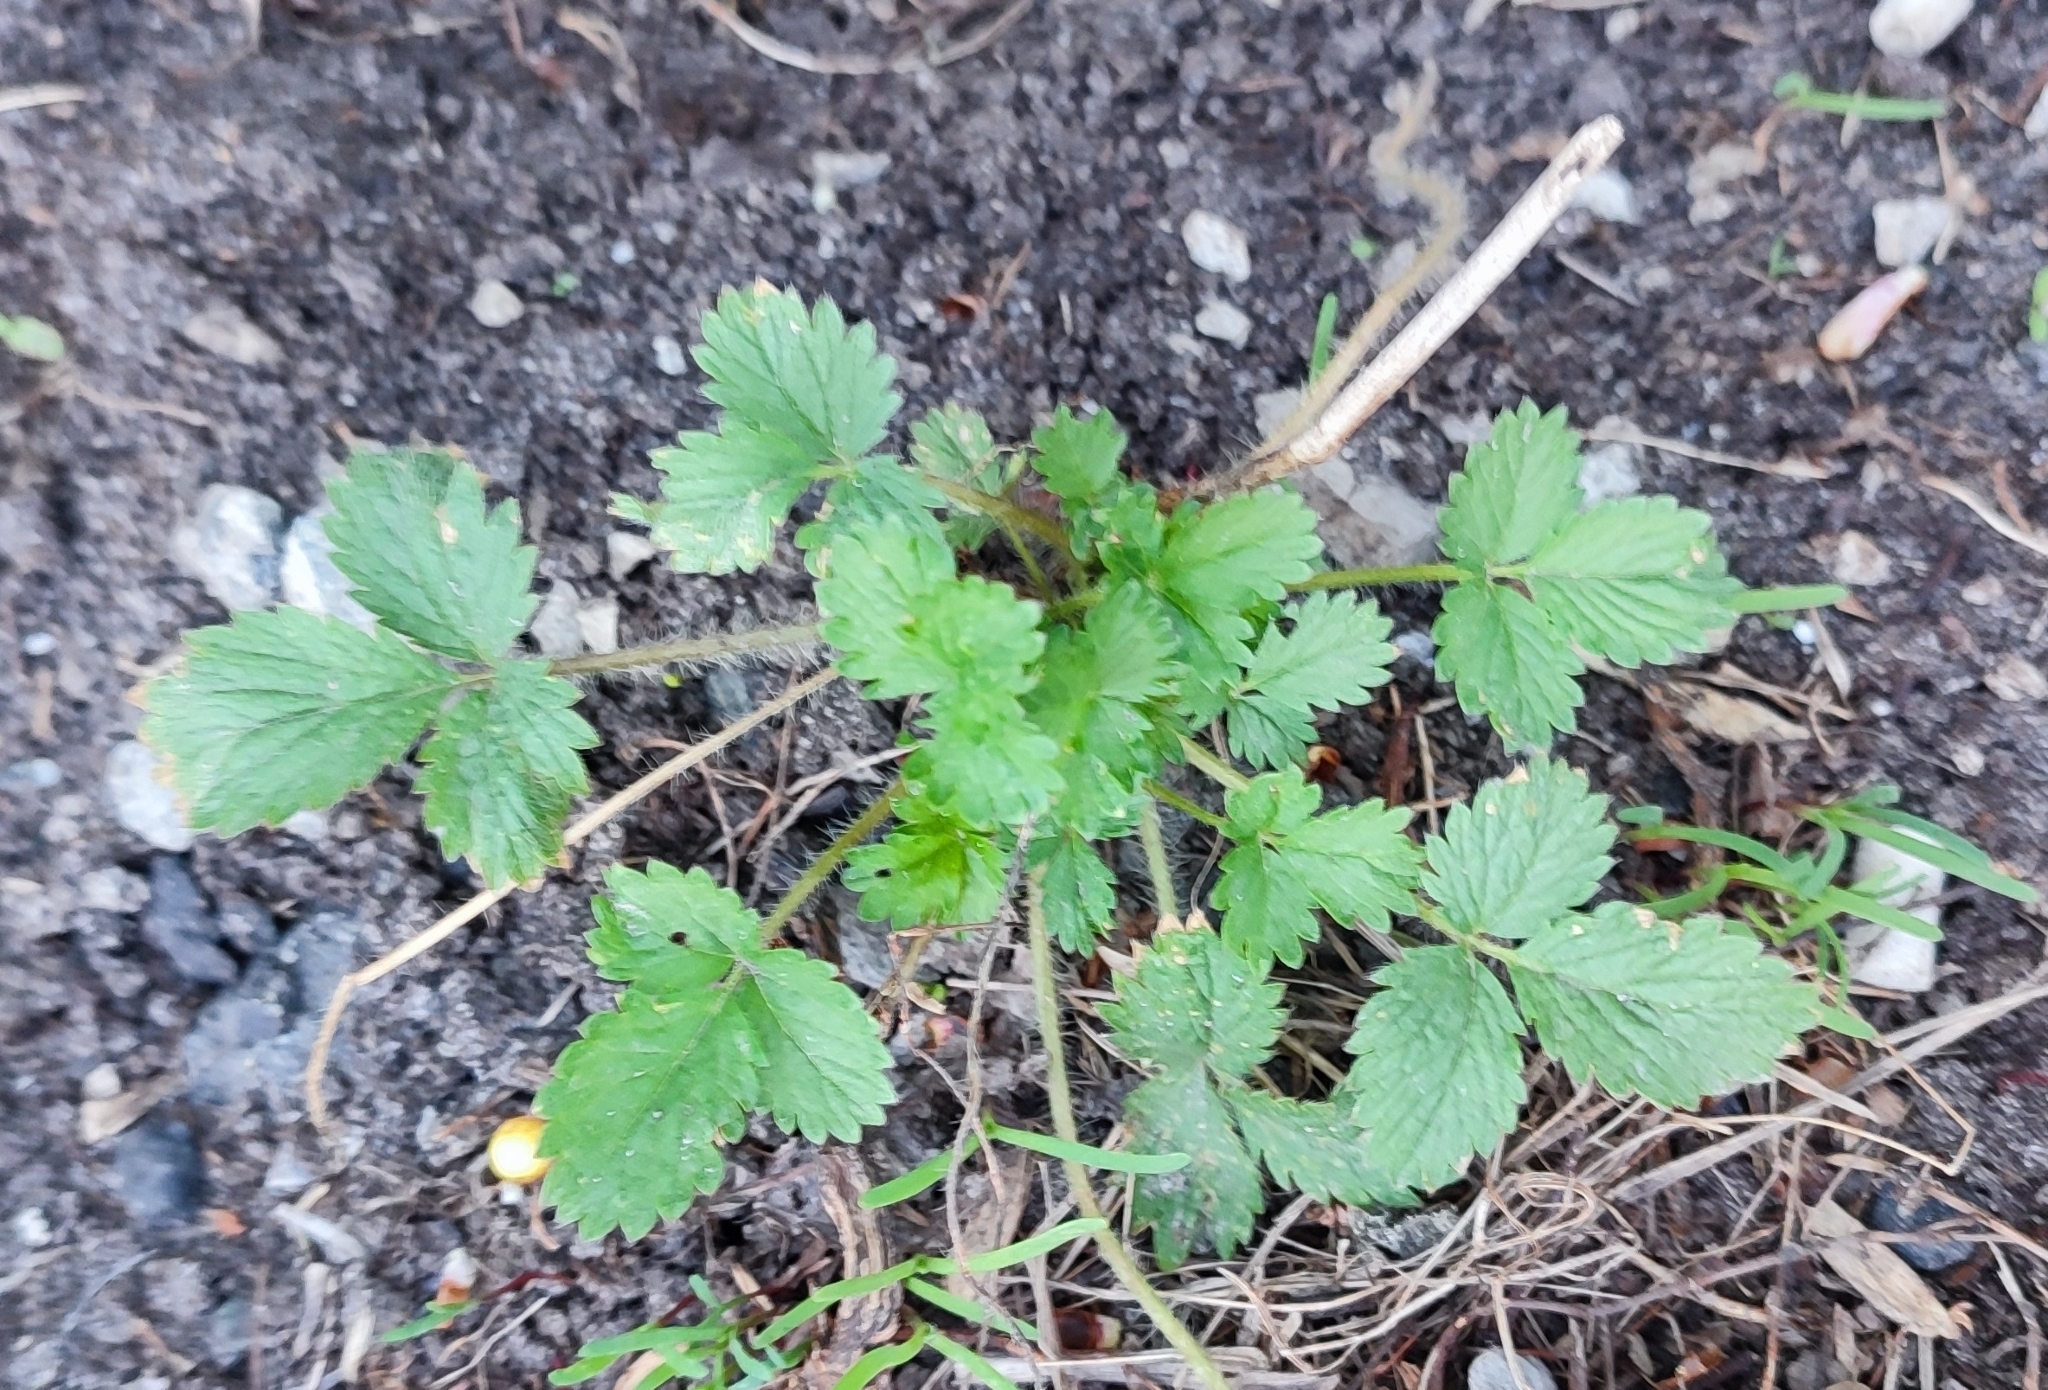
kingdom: Plantae
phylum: Tracheophyta
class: Magnoliopsida
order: Rosales
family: Rosaceae
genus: Potentilla
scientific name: Potentilla norvegica
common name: Ternate-leaved cinquefoil
